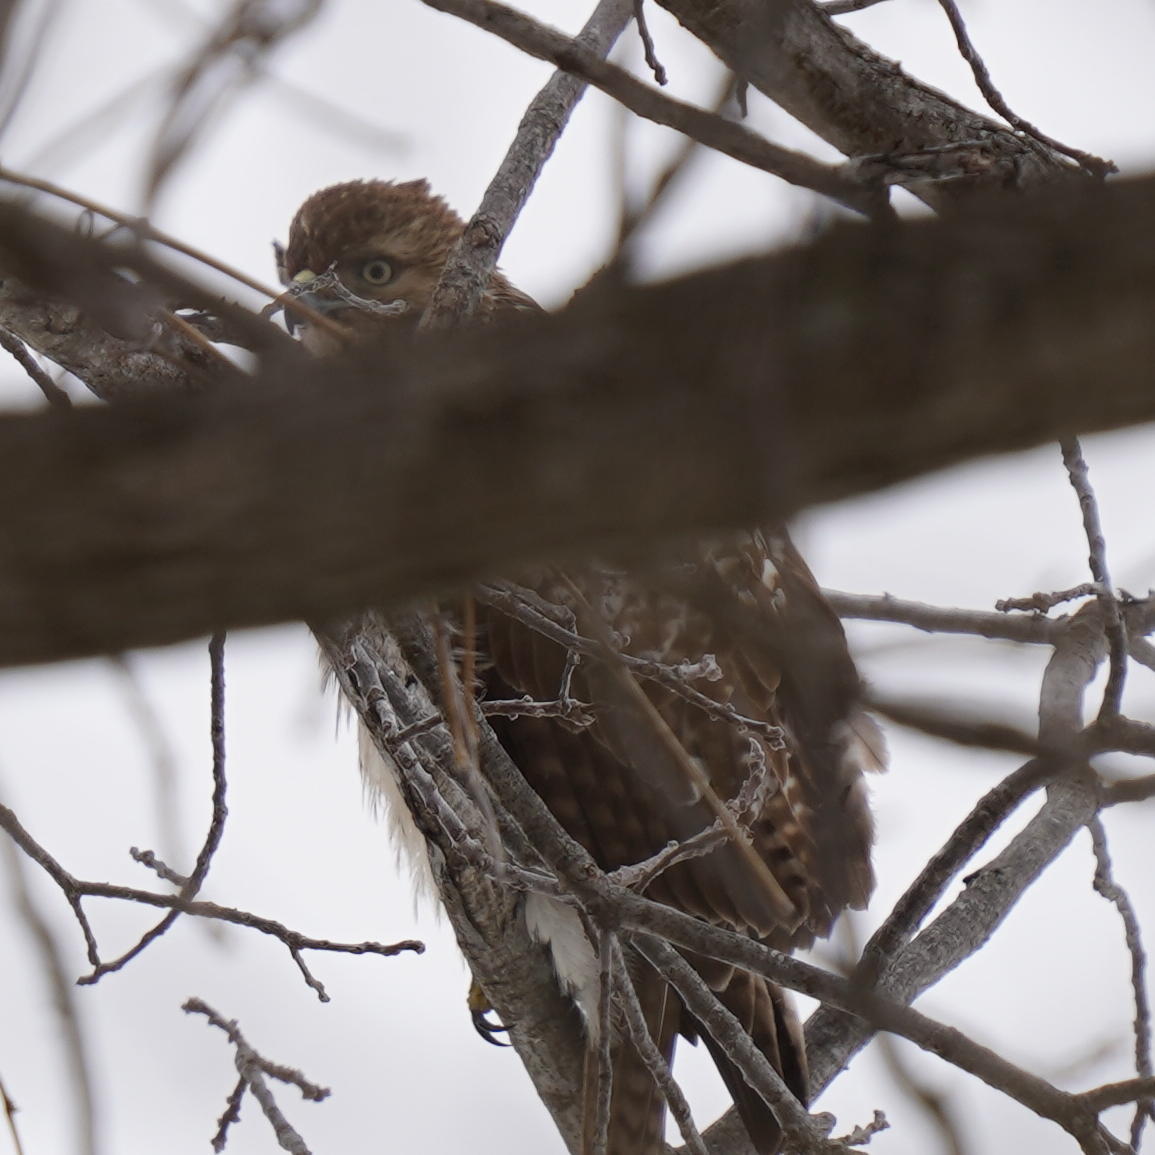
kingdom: Animalia
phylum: Chordata
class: Aves
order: Accipitriformes
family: Accipitridae
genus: Buteo
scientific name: Buteo jamaicensis
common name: Red-tailed hawk
